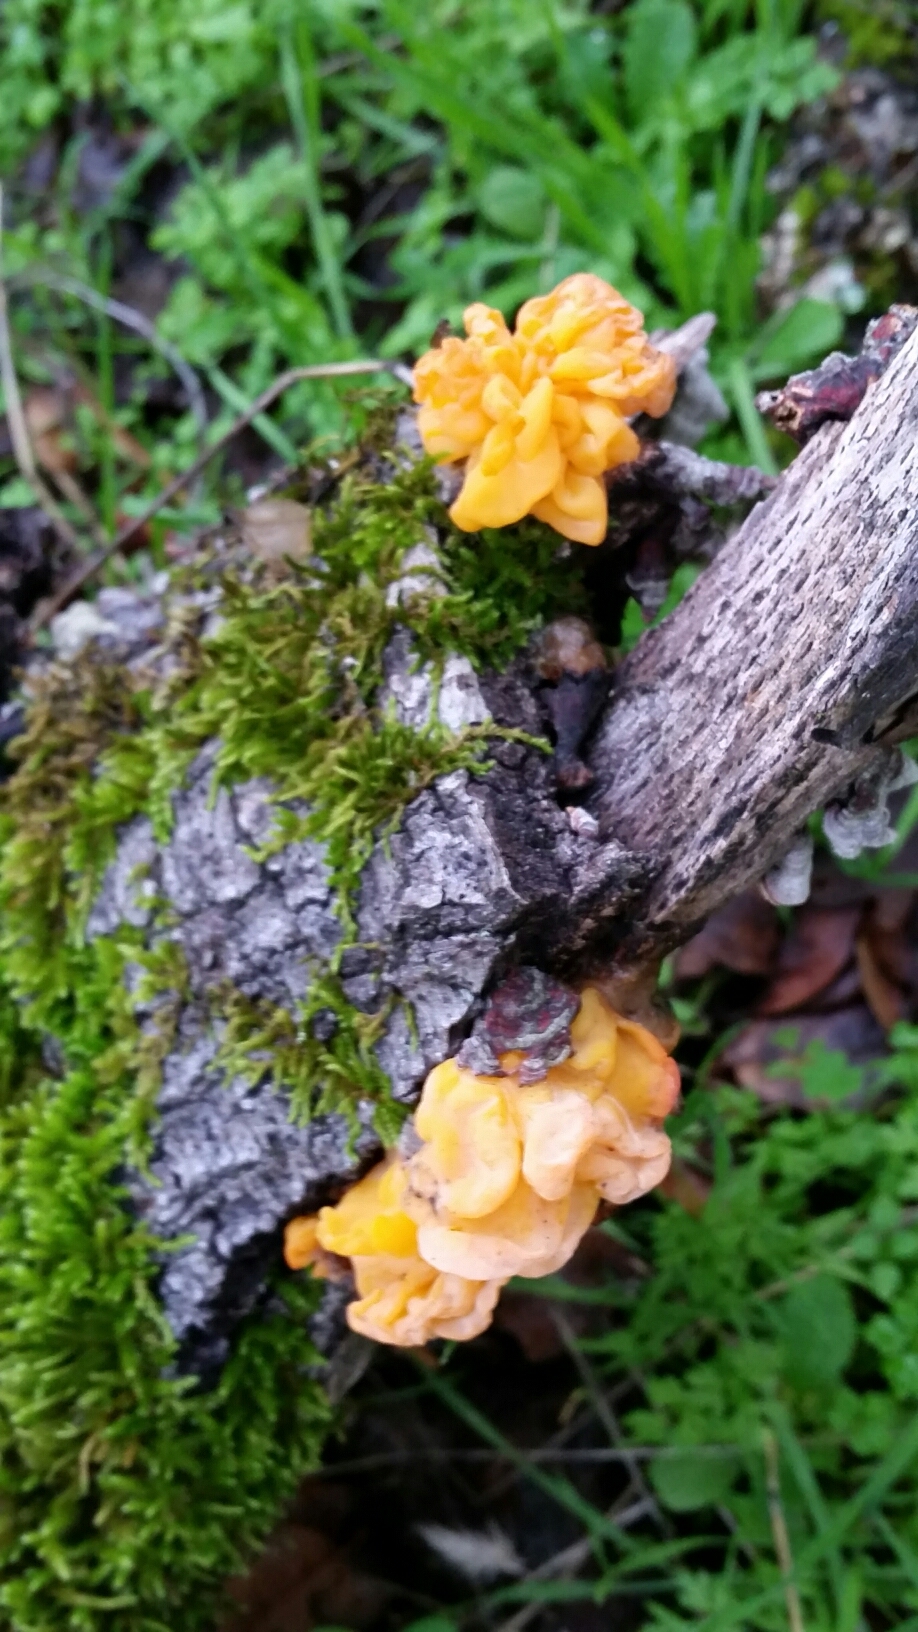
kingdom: Fungi
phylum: Basidiomycota
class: Tremellomycetes
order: Tremellales
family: Naemateliaceae
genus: Naematelia
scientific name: Naematelia aurantia
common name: Golden ear
